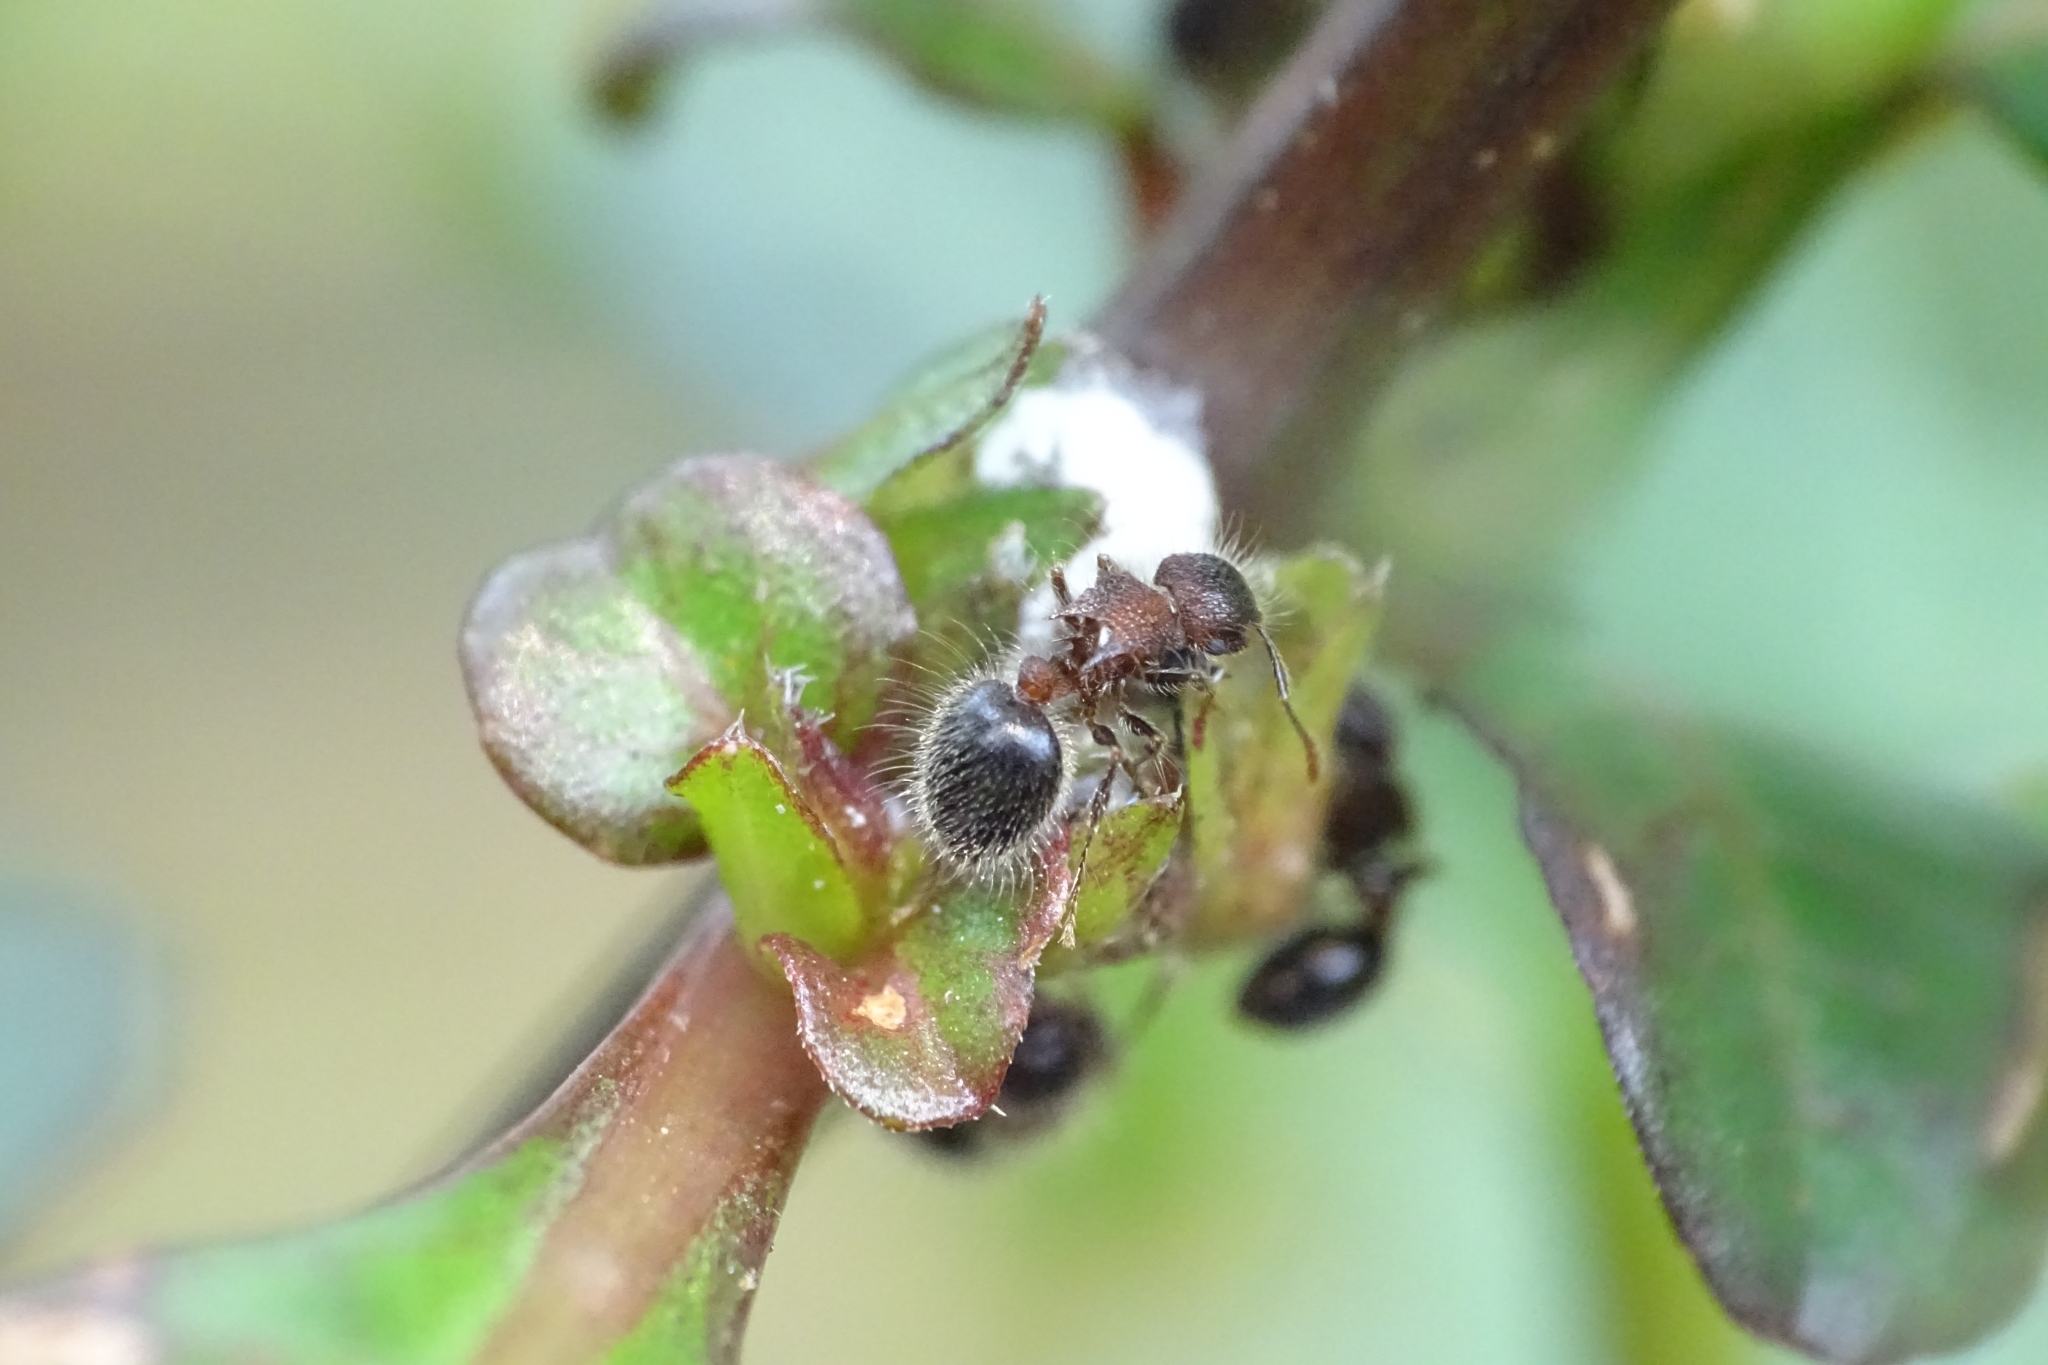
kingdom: Animalia
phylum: Arthropoda
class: Insecta
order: Hymenoptera
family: Formicidae
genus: Meranoplus
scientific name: Meranoplus bicolor
